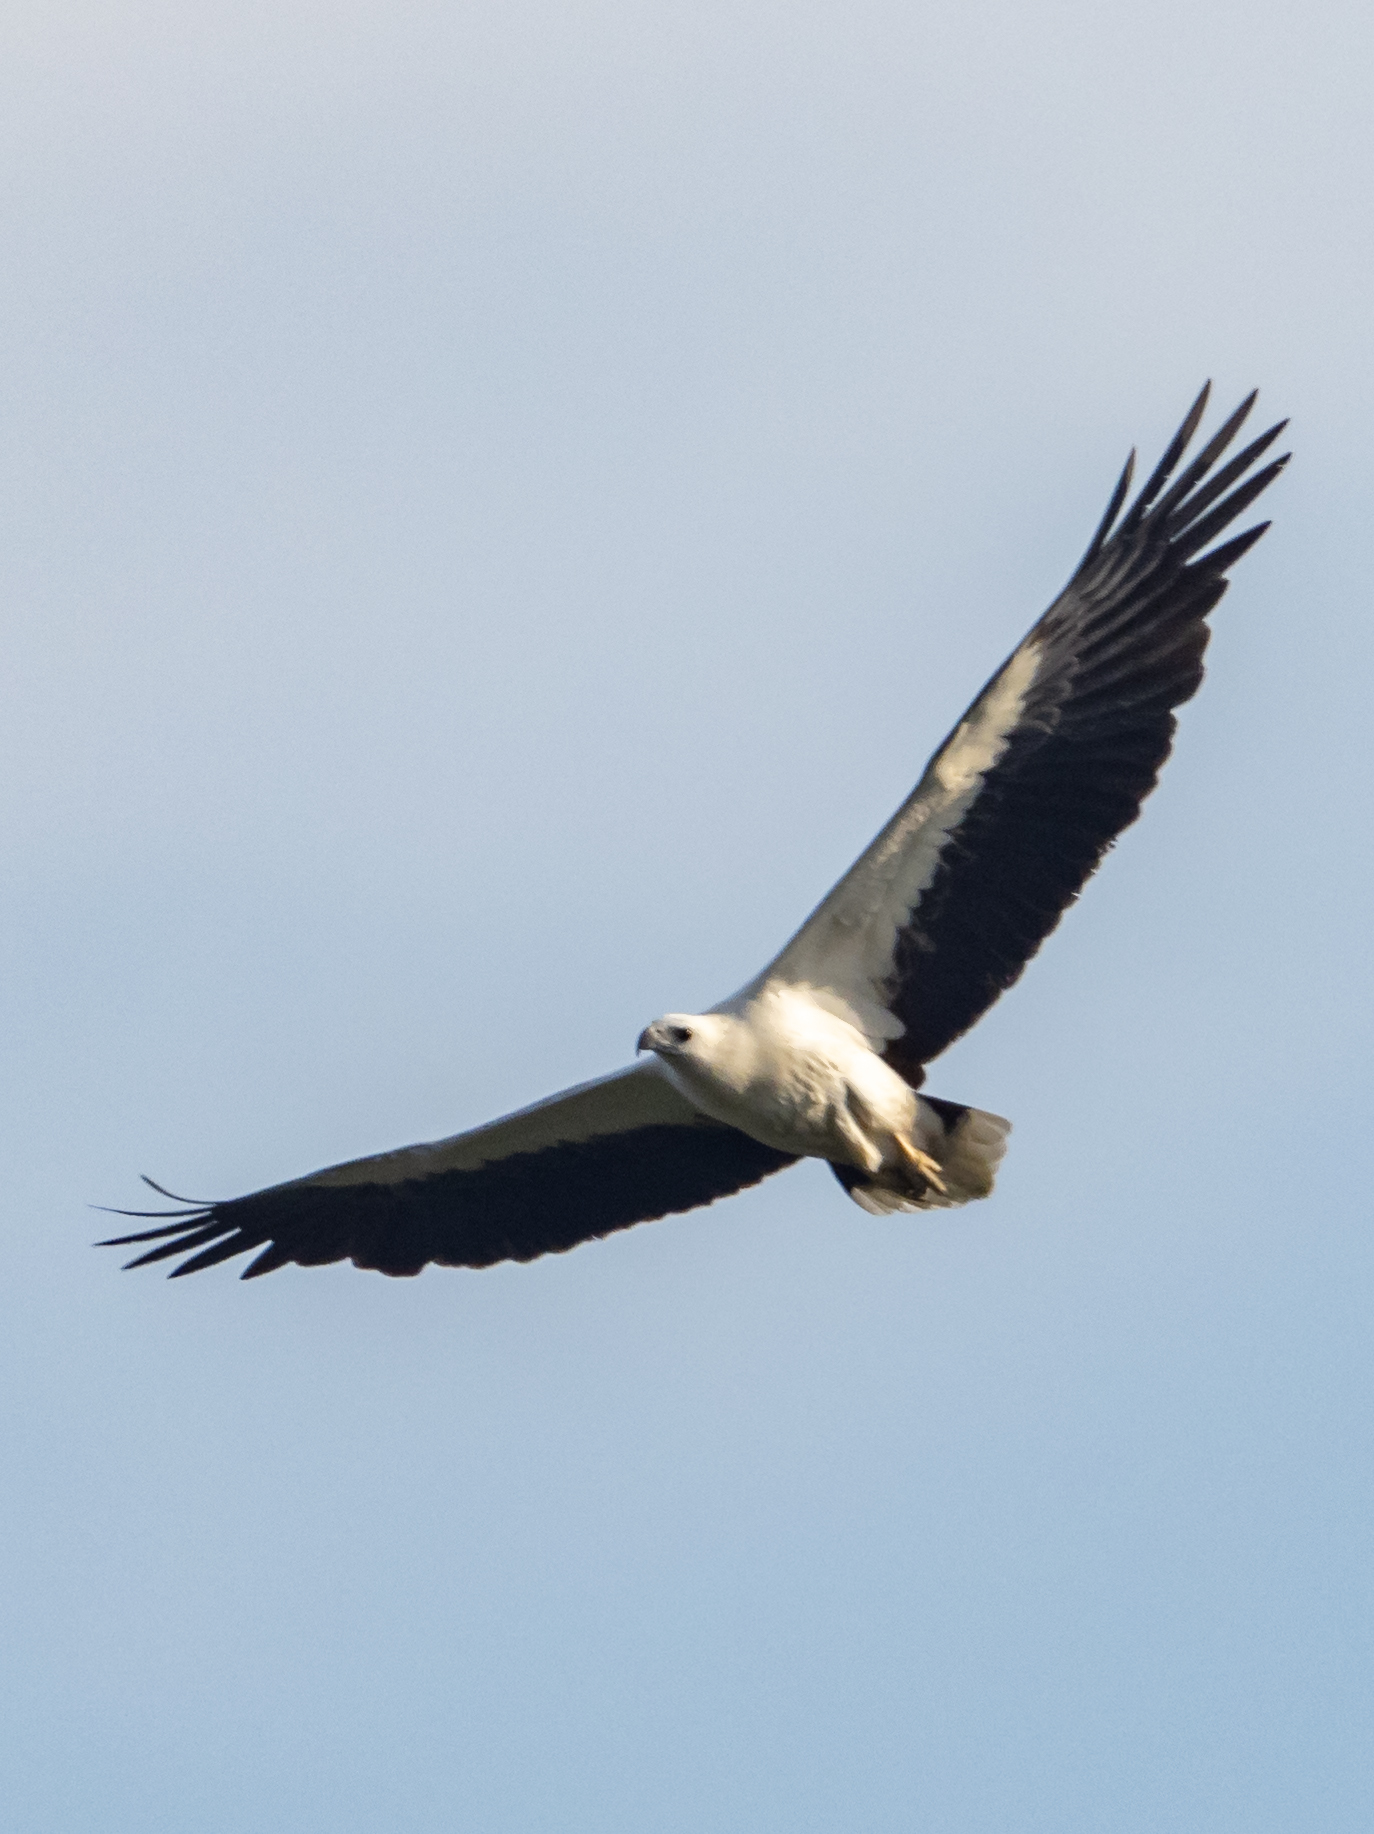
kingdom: Animalia
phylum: Chordata
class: Aves
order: Accipitriformes
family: Accipitridae
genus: Haliaeetus
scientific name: Haliaeetus leucogaster
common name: White-bellied sea eagle
